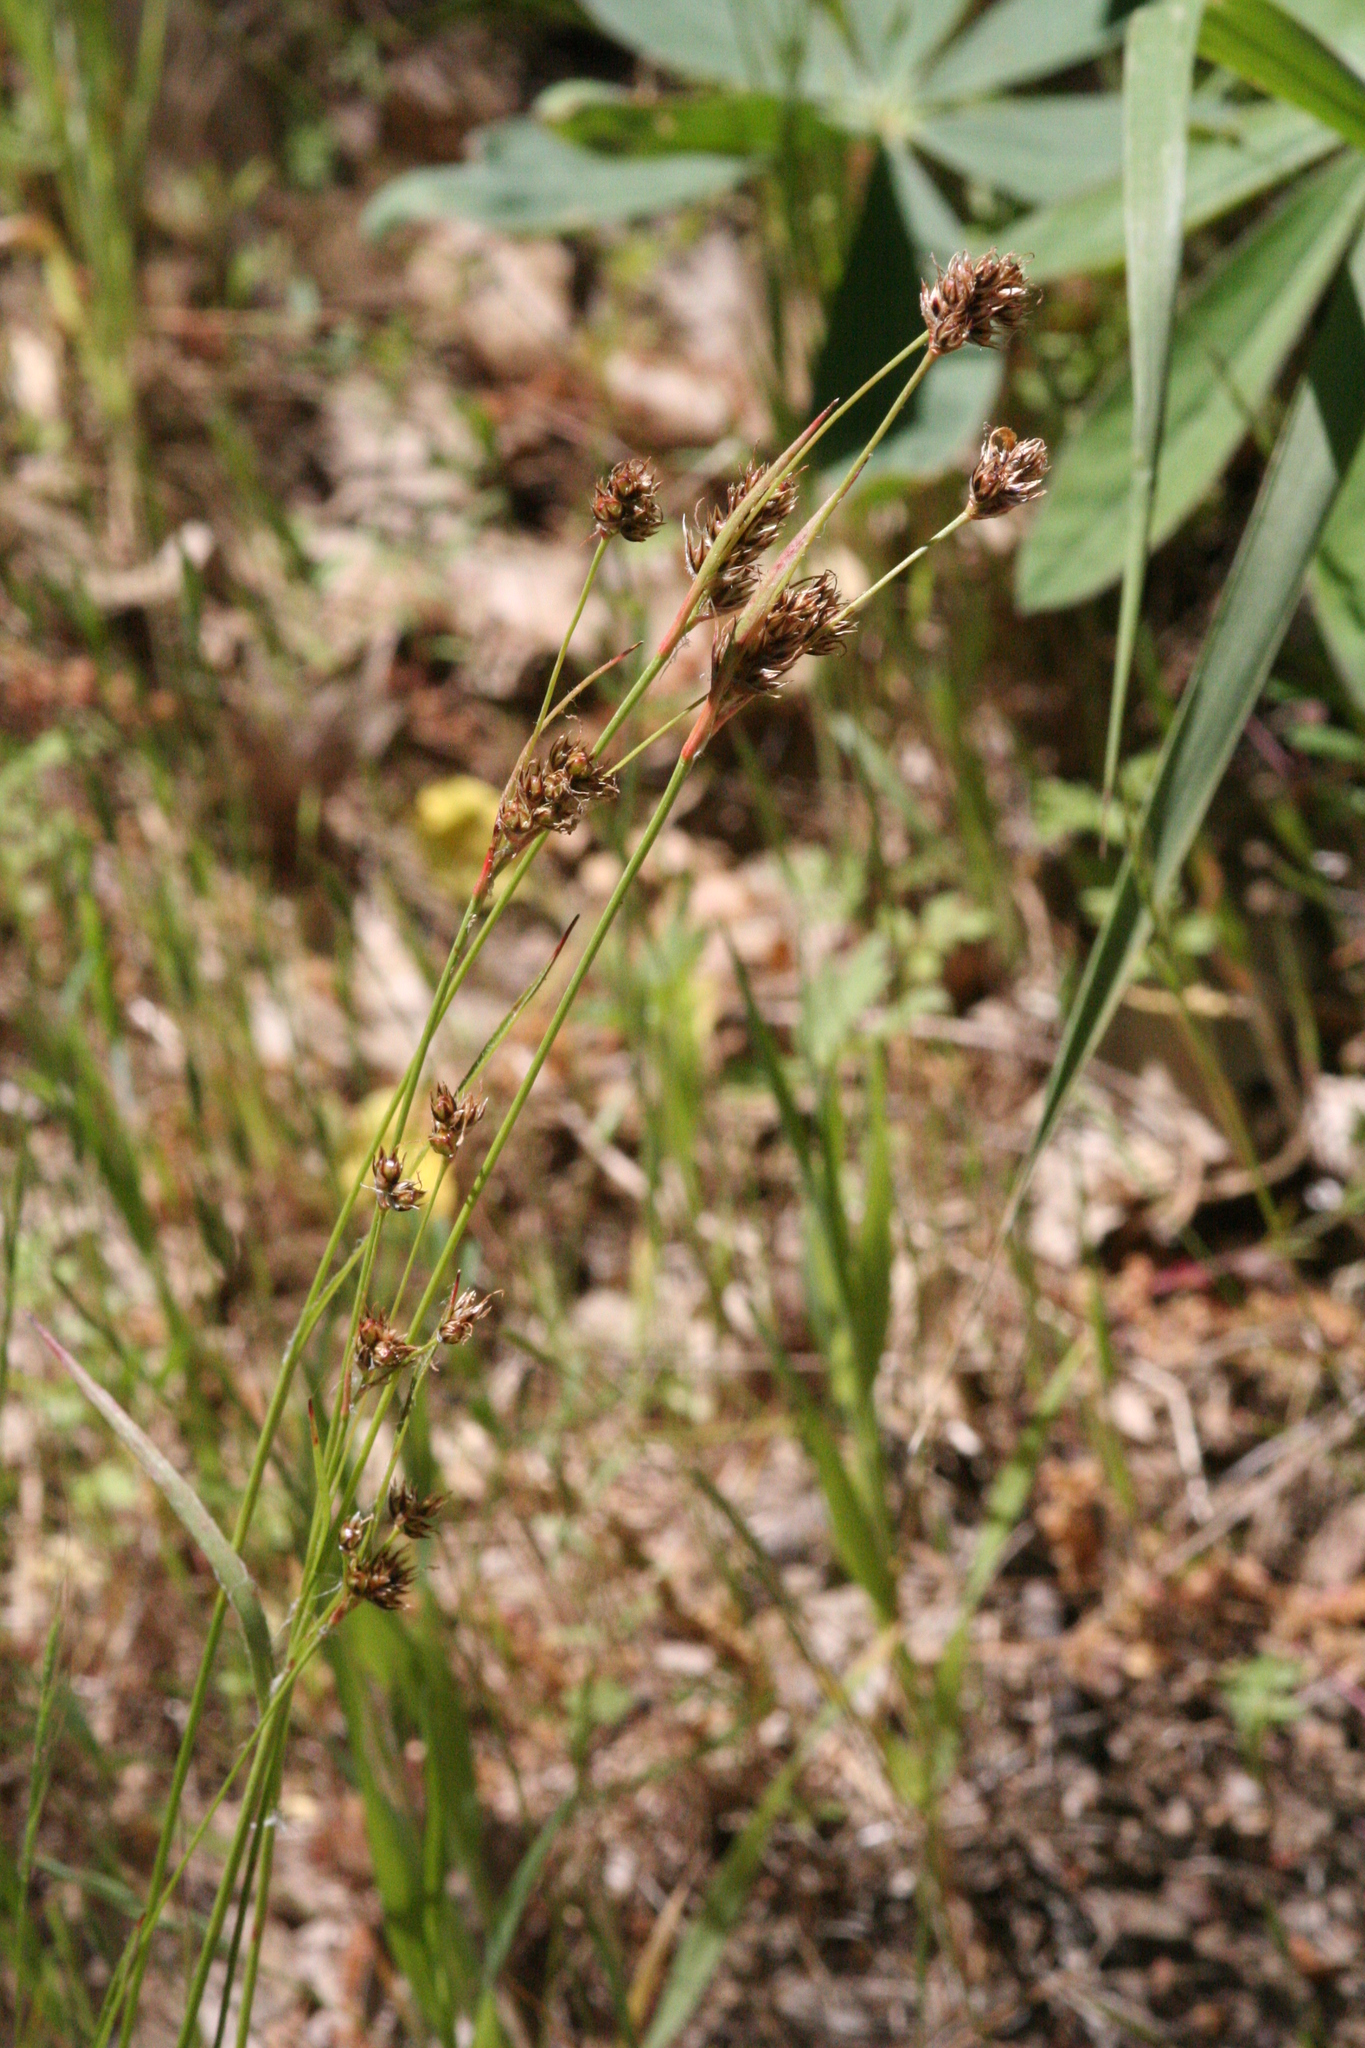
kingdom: Plantae
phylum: Tracheophyta
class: Liliopsida
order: Poales
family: Juncaceae
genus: Luzula
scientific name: Luzula macrantha
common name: Large-anthered woodrush
